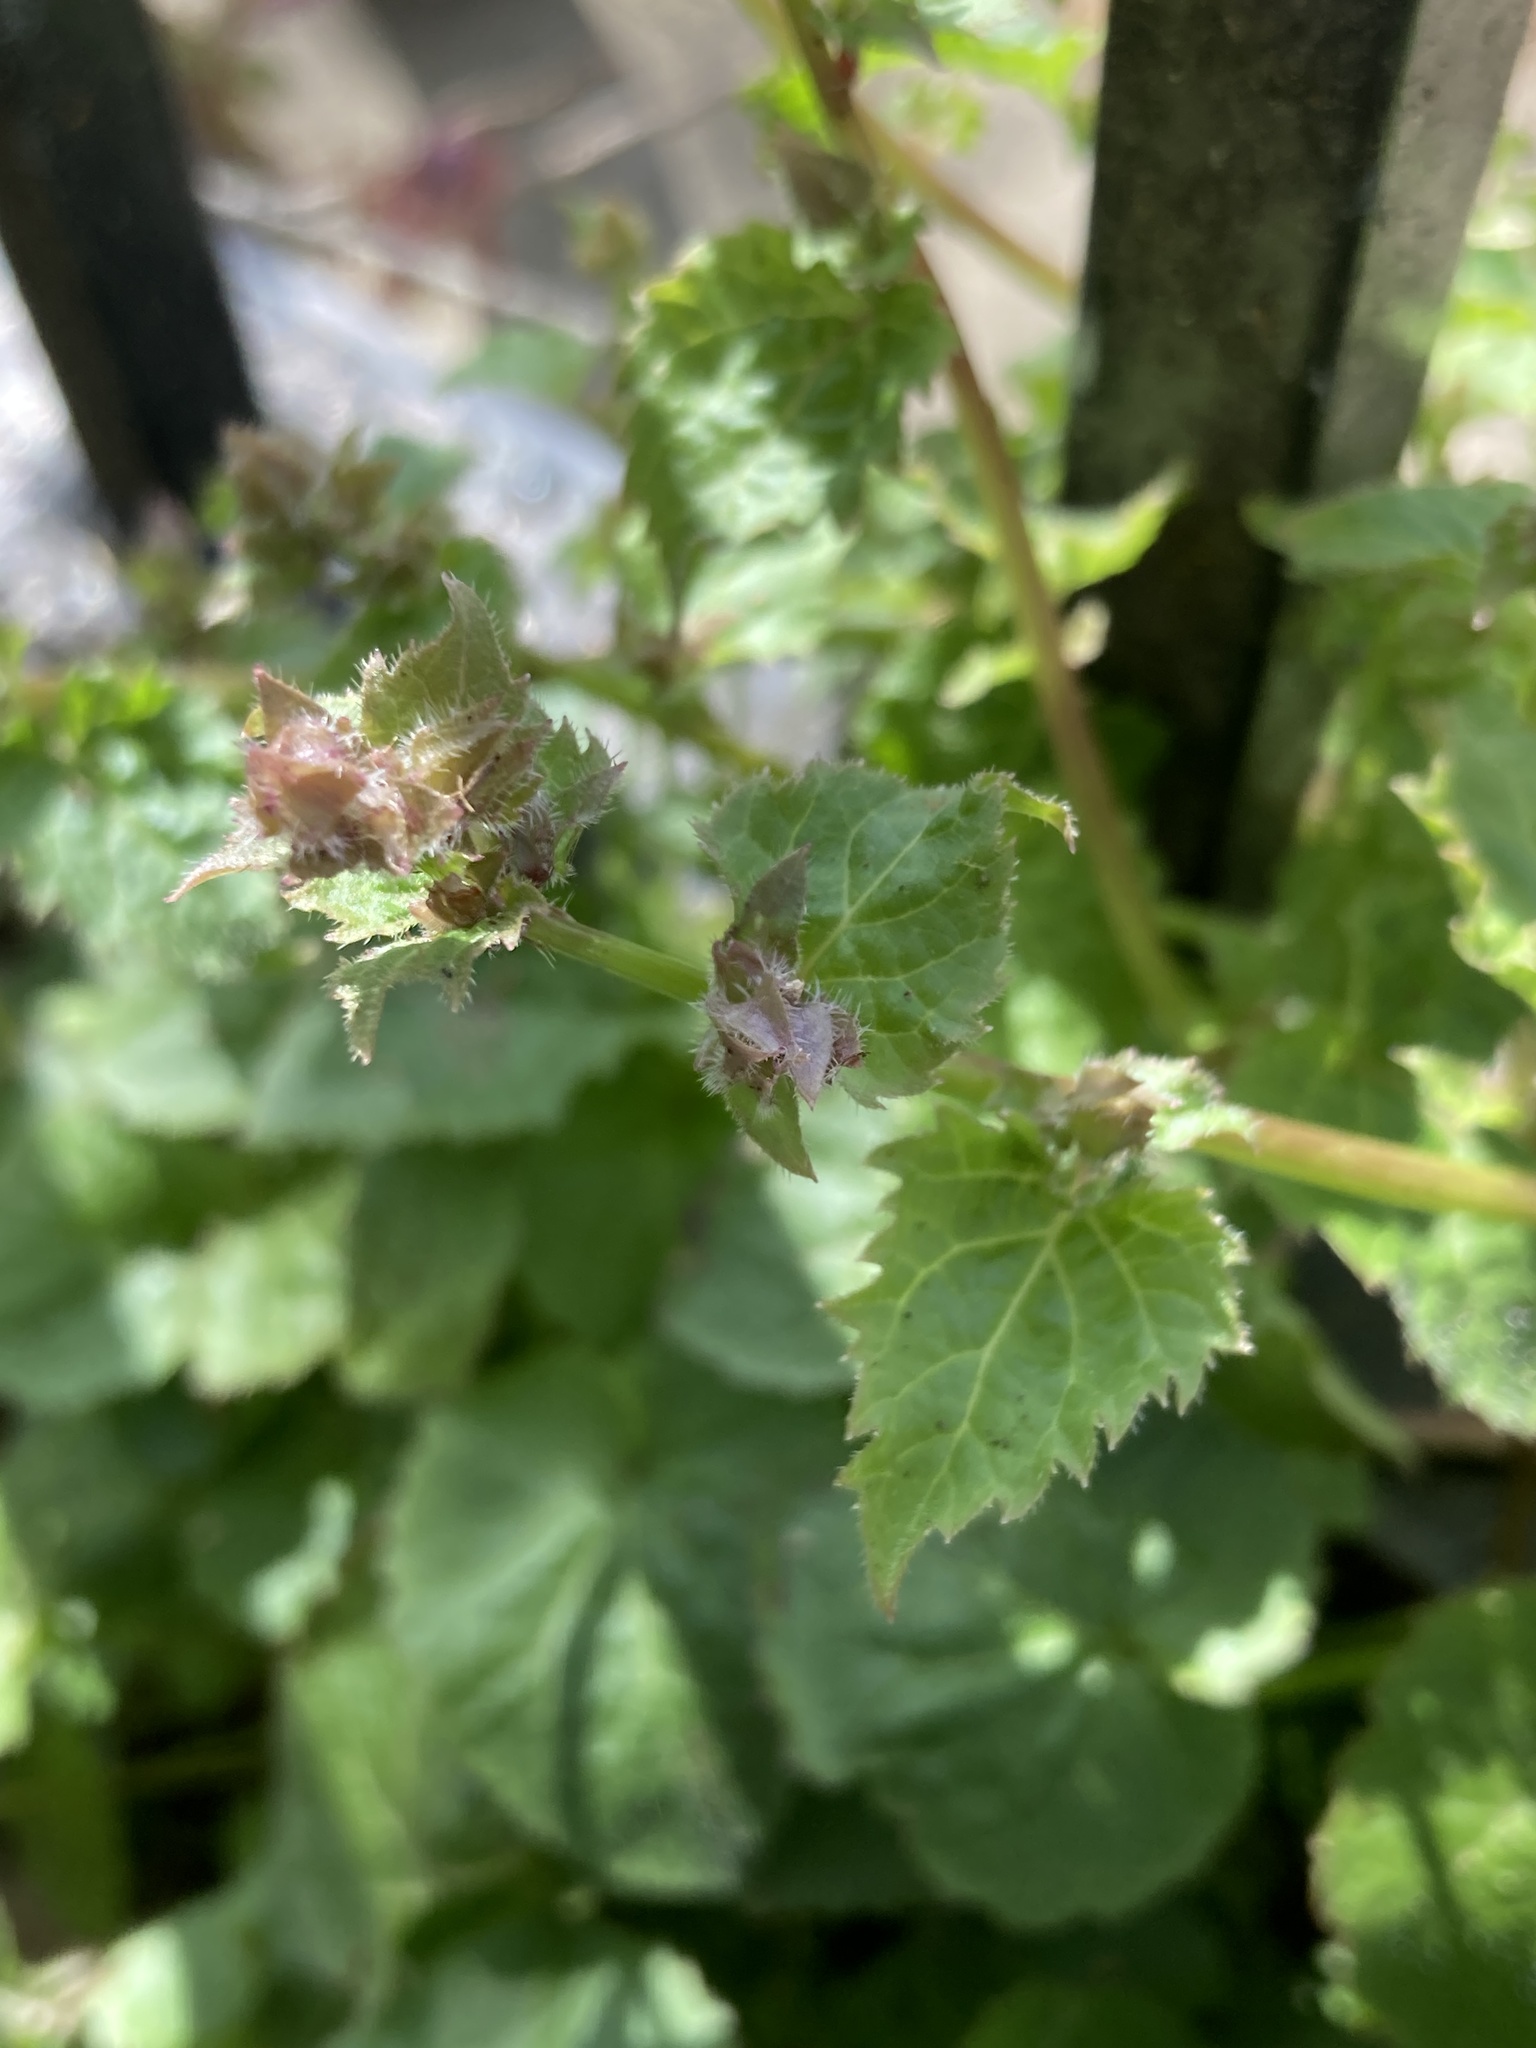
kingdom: Plantae
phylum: Tracheophyta
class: Magnoliopsida
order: Asterales
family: Campanulaceae
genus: Campanula
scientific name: Campanula poscharskyana
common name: Trailing bellflower
